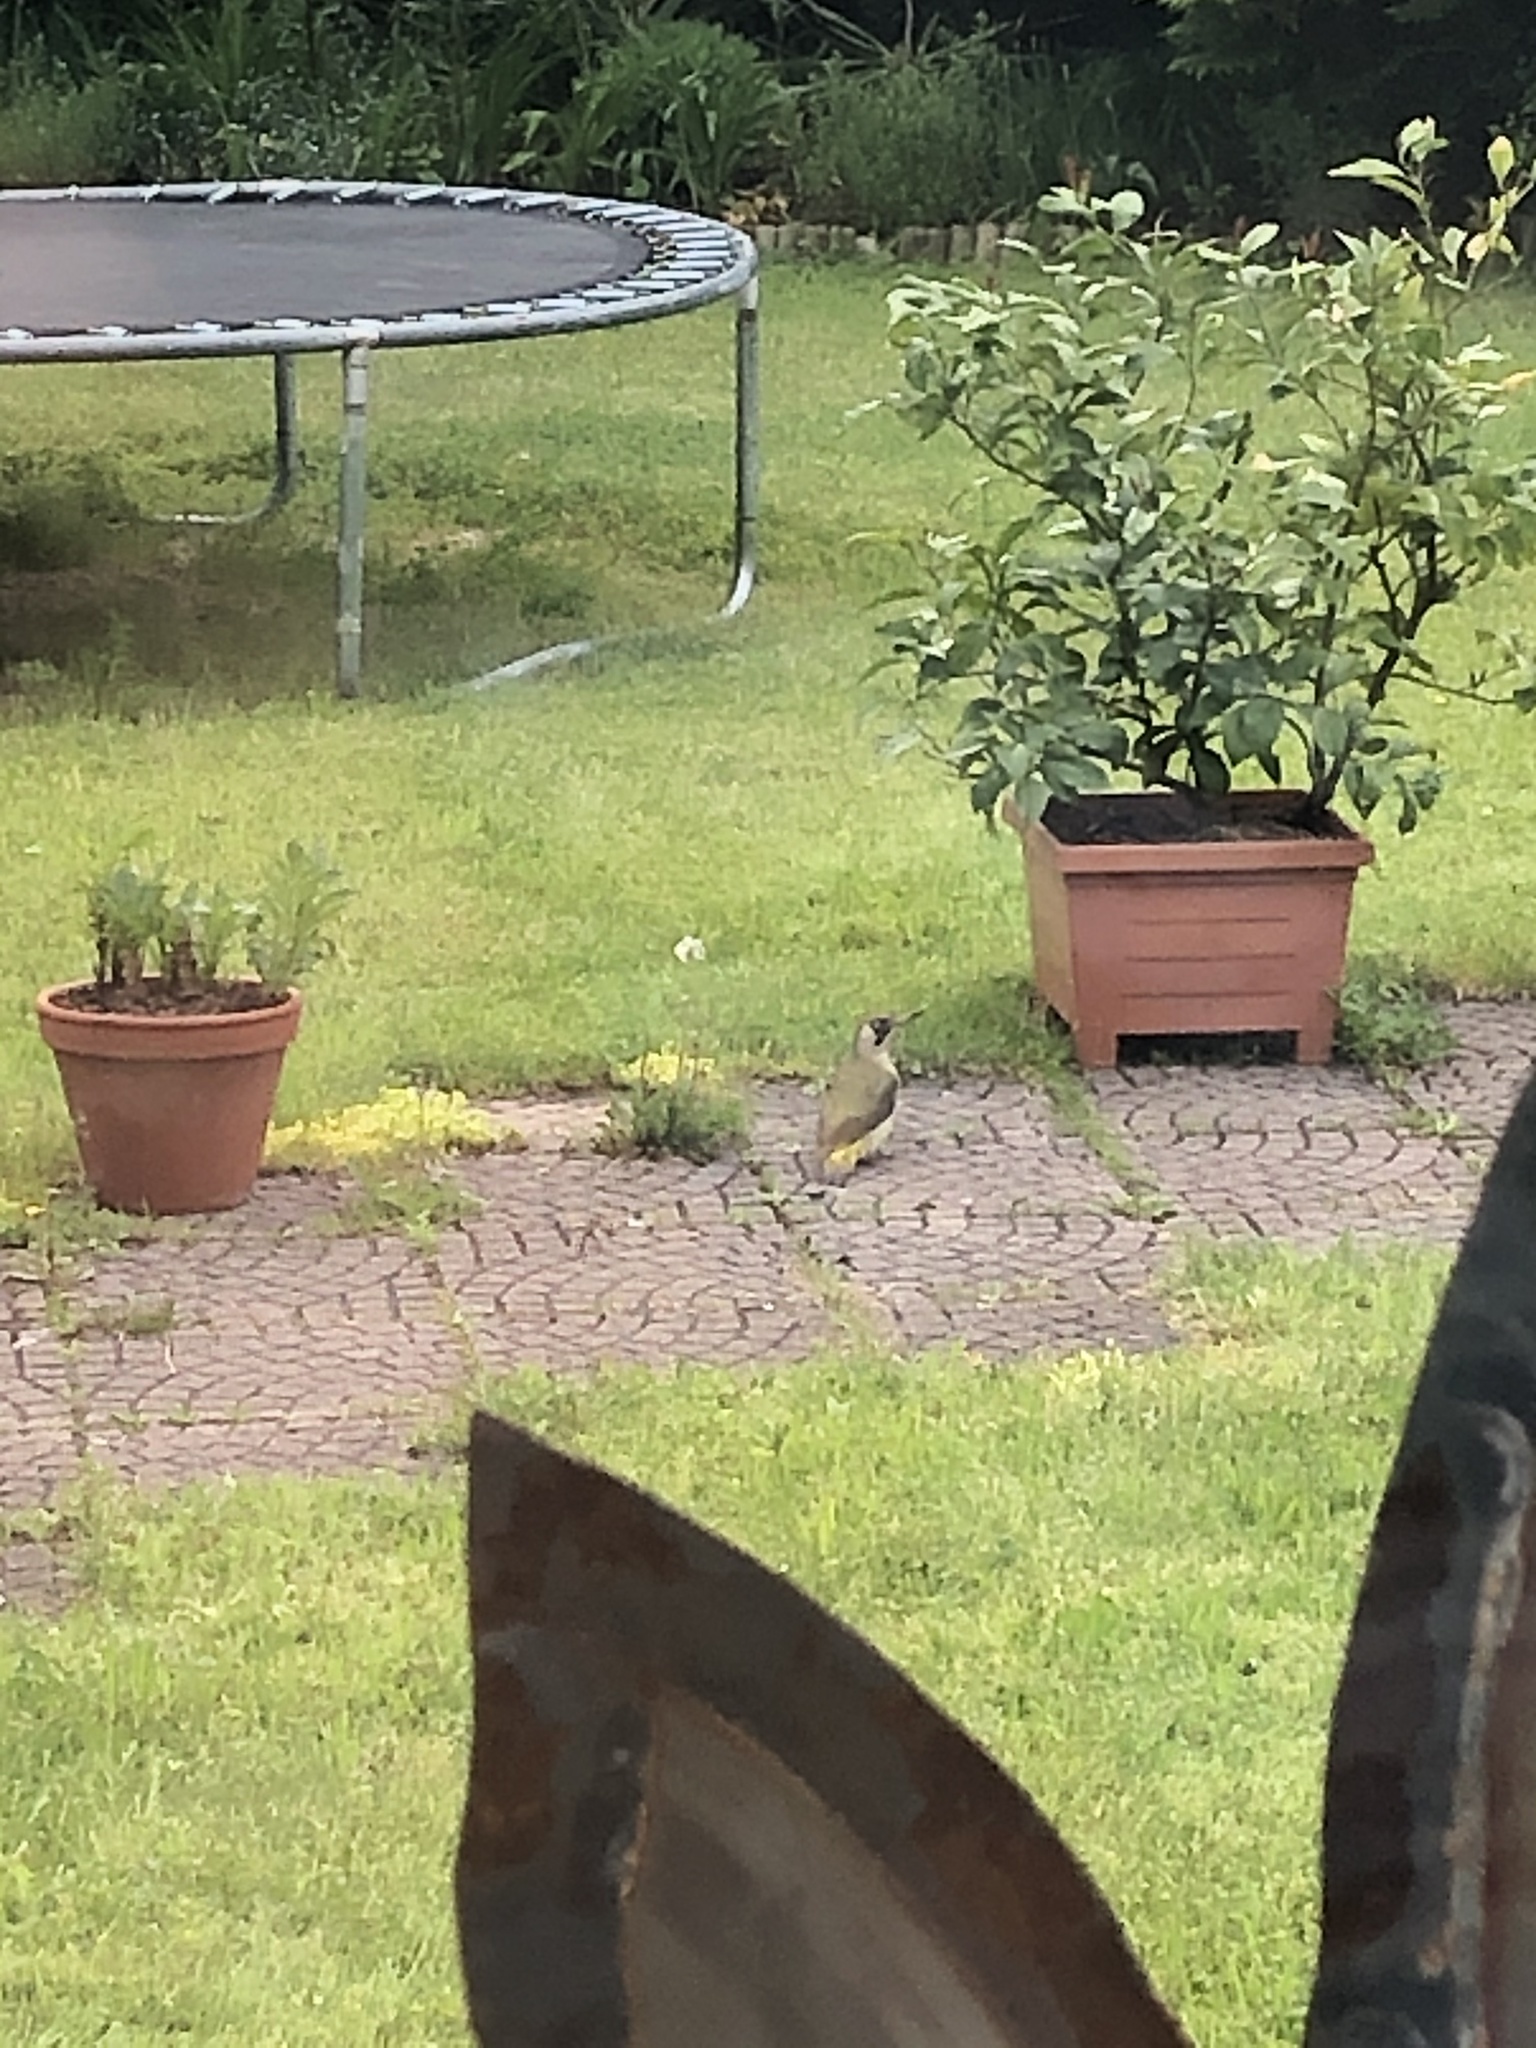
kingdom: Animalia
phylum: Chordata
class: Aves
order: Piciformes
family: Picidae
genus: Picus
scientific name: Picus viridis
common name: European green woodpecker
